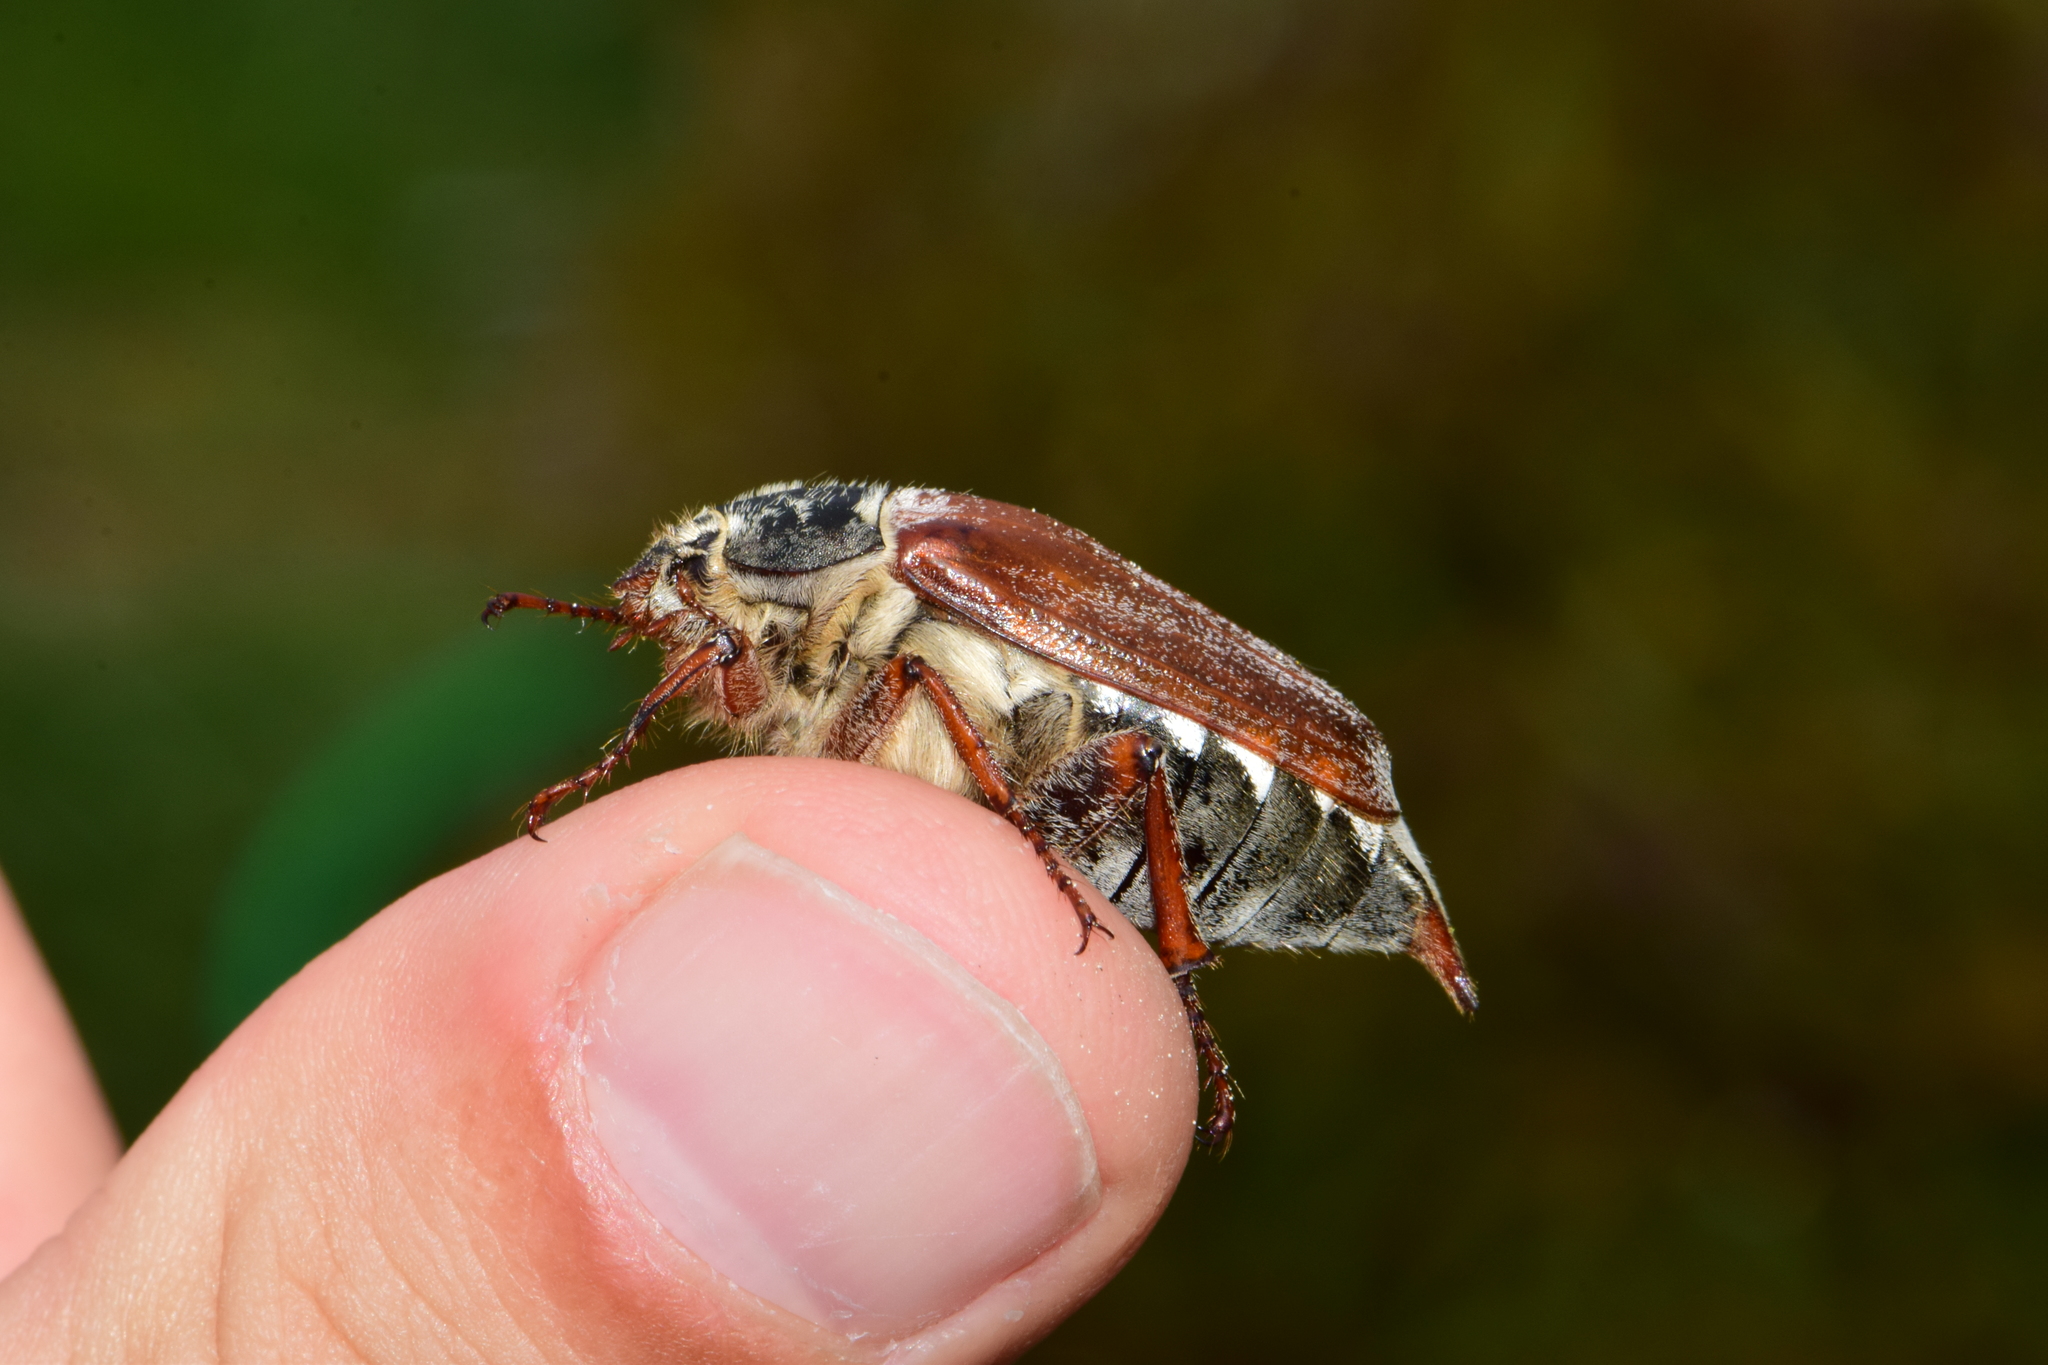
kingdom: Animalia
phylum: Arthropoda
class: Insecta
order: Coleoptera
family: Scarabaeidae
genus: Melolontha
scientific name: Melolontha melolontha
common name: Cockchafer maybeetle
